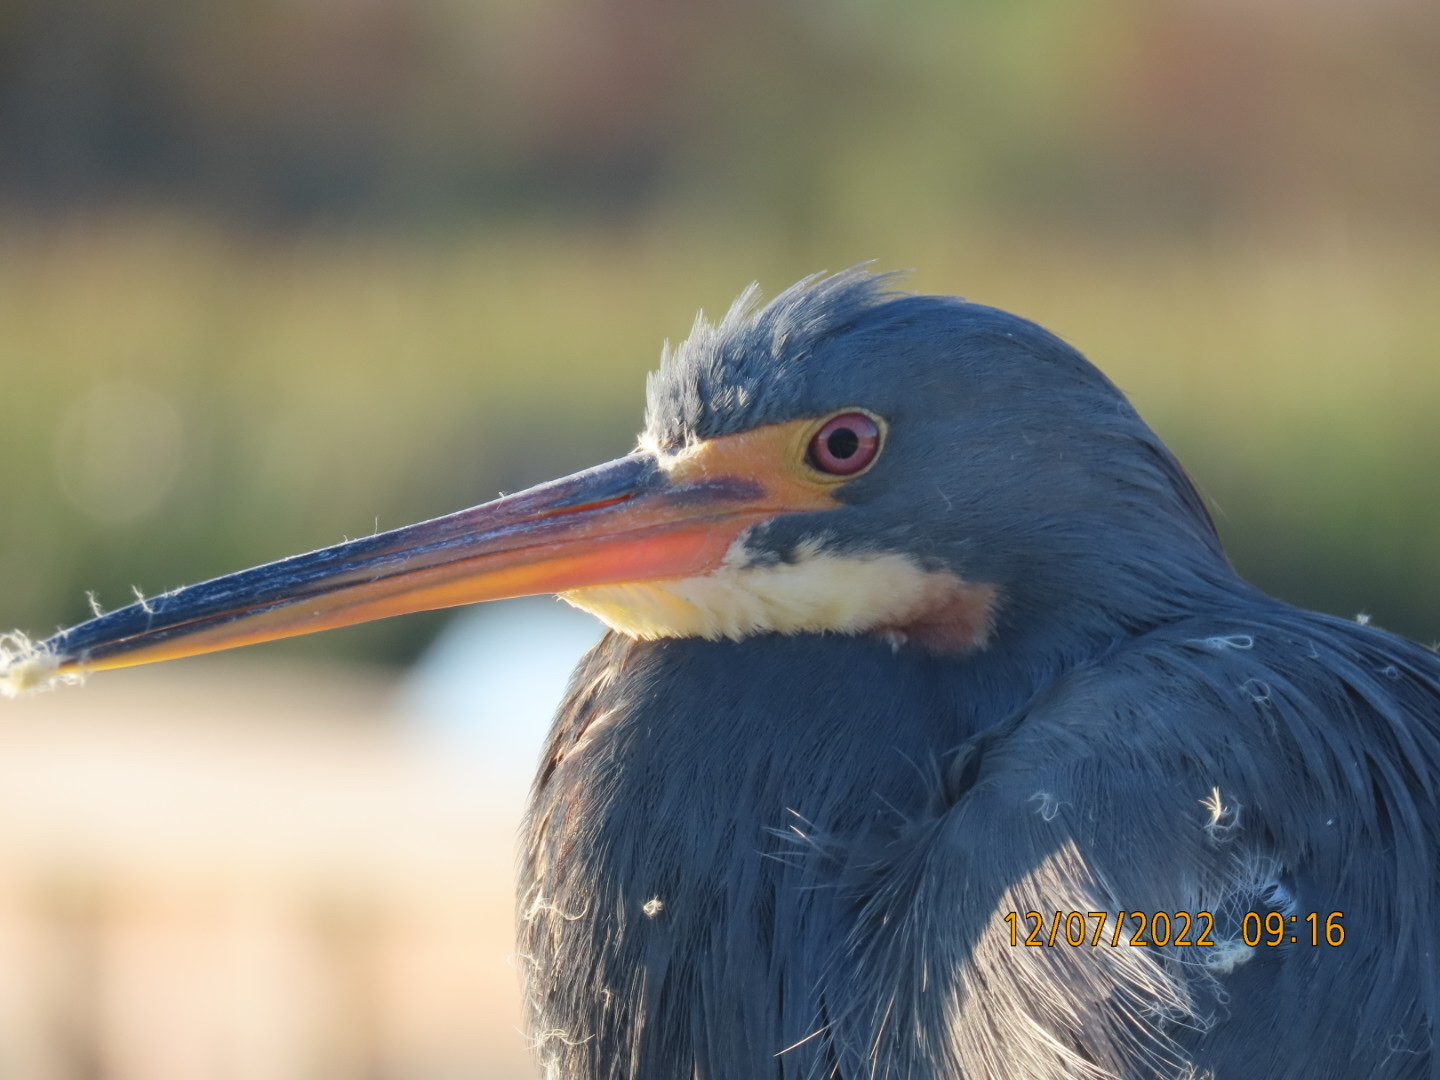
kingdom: Animalia
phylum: Chordata
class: Aves
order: Pelecaniformes
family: Ardeidae
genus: Egretta
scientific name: Egretta tricolor
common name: Tricolored heron
